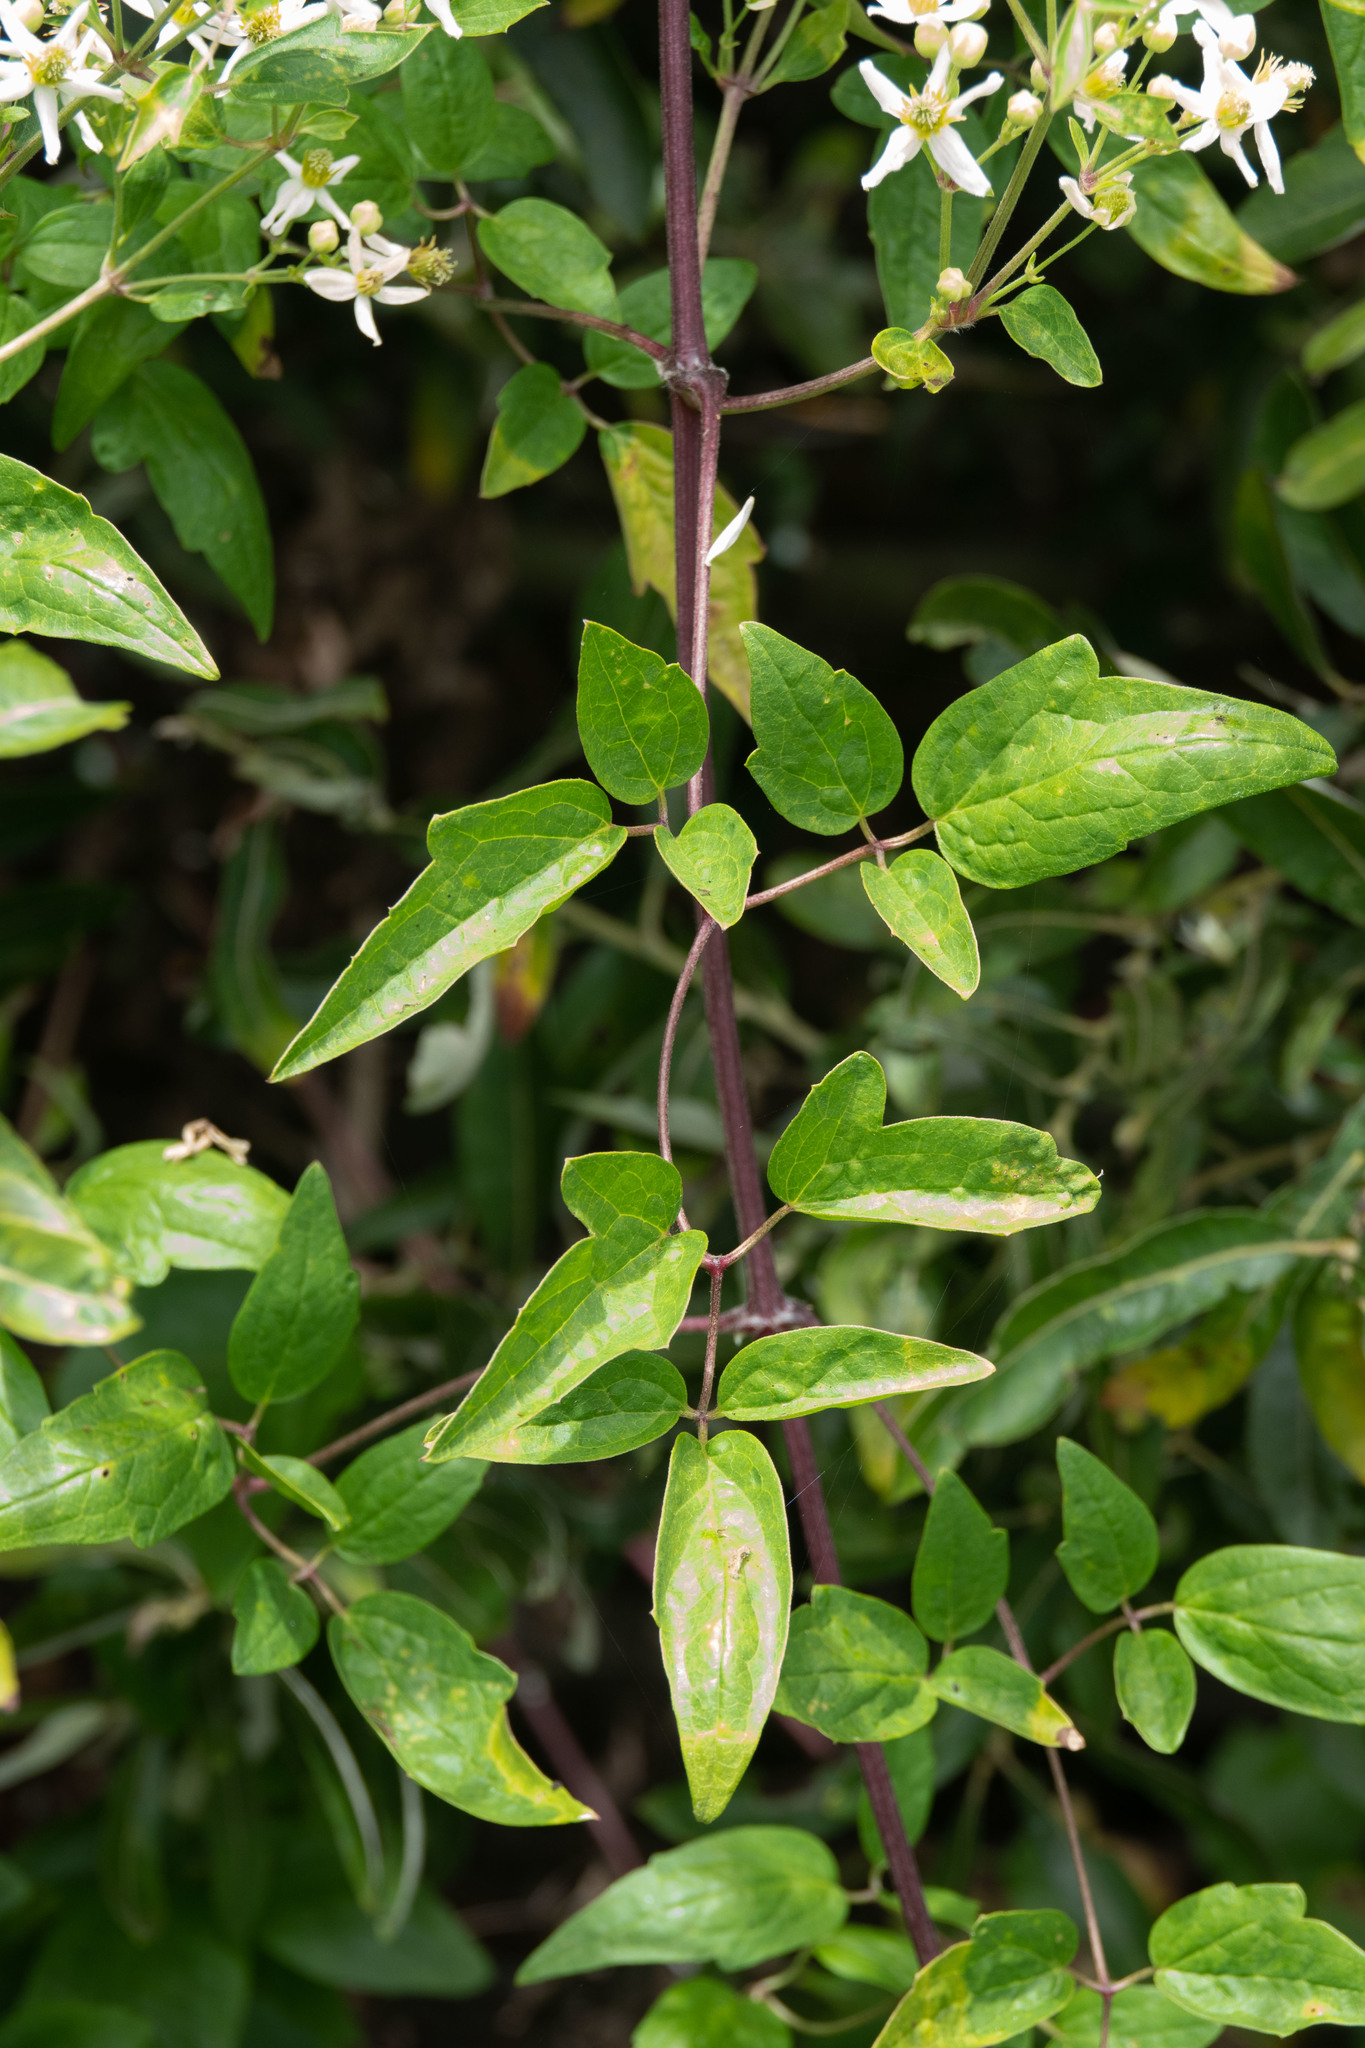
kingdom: Plantae
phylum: Tracheophyta
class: Magnoliopsida
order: Ranunculales
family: Ranunculaceae
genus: Clematis
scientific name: Clematis ligusticifolia
